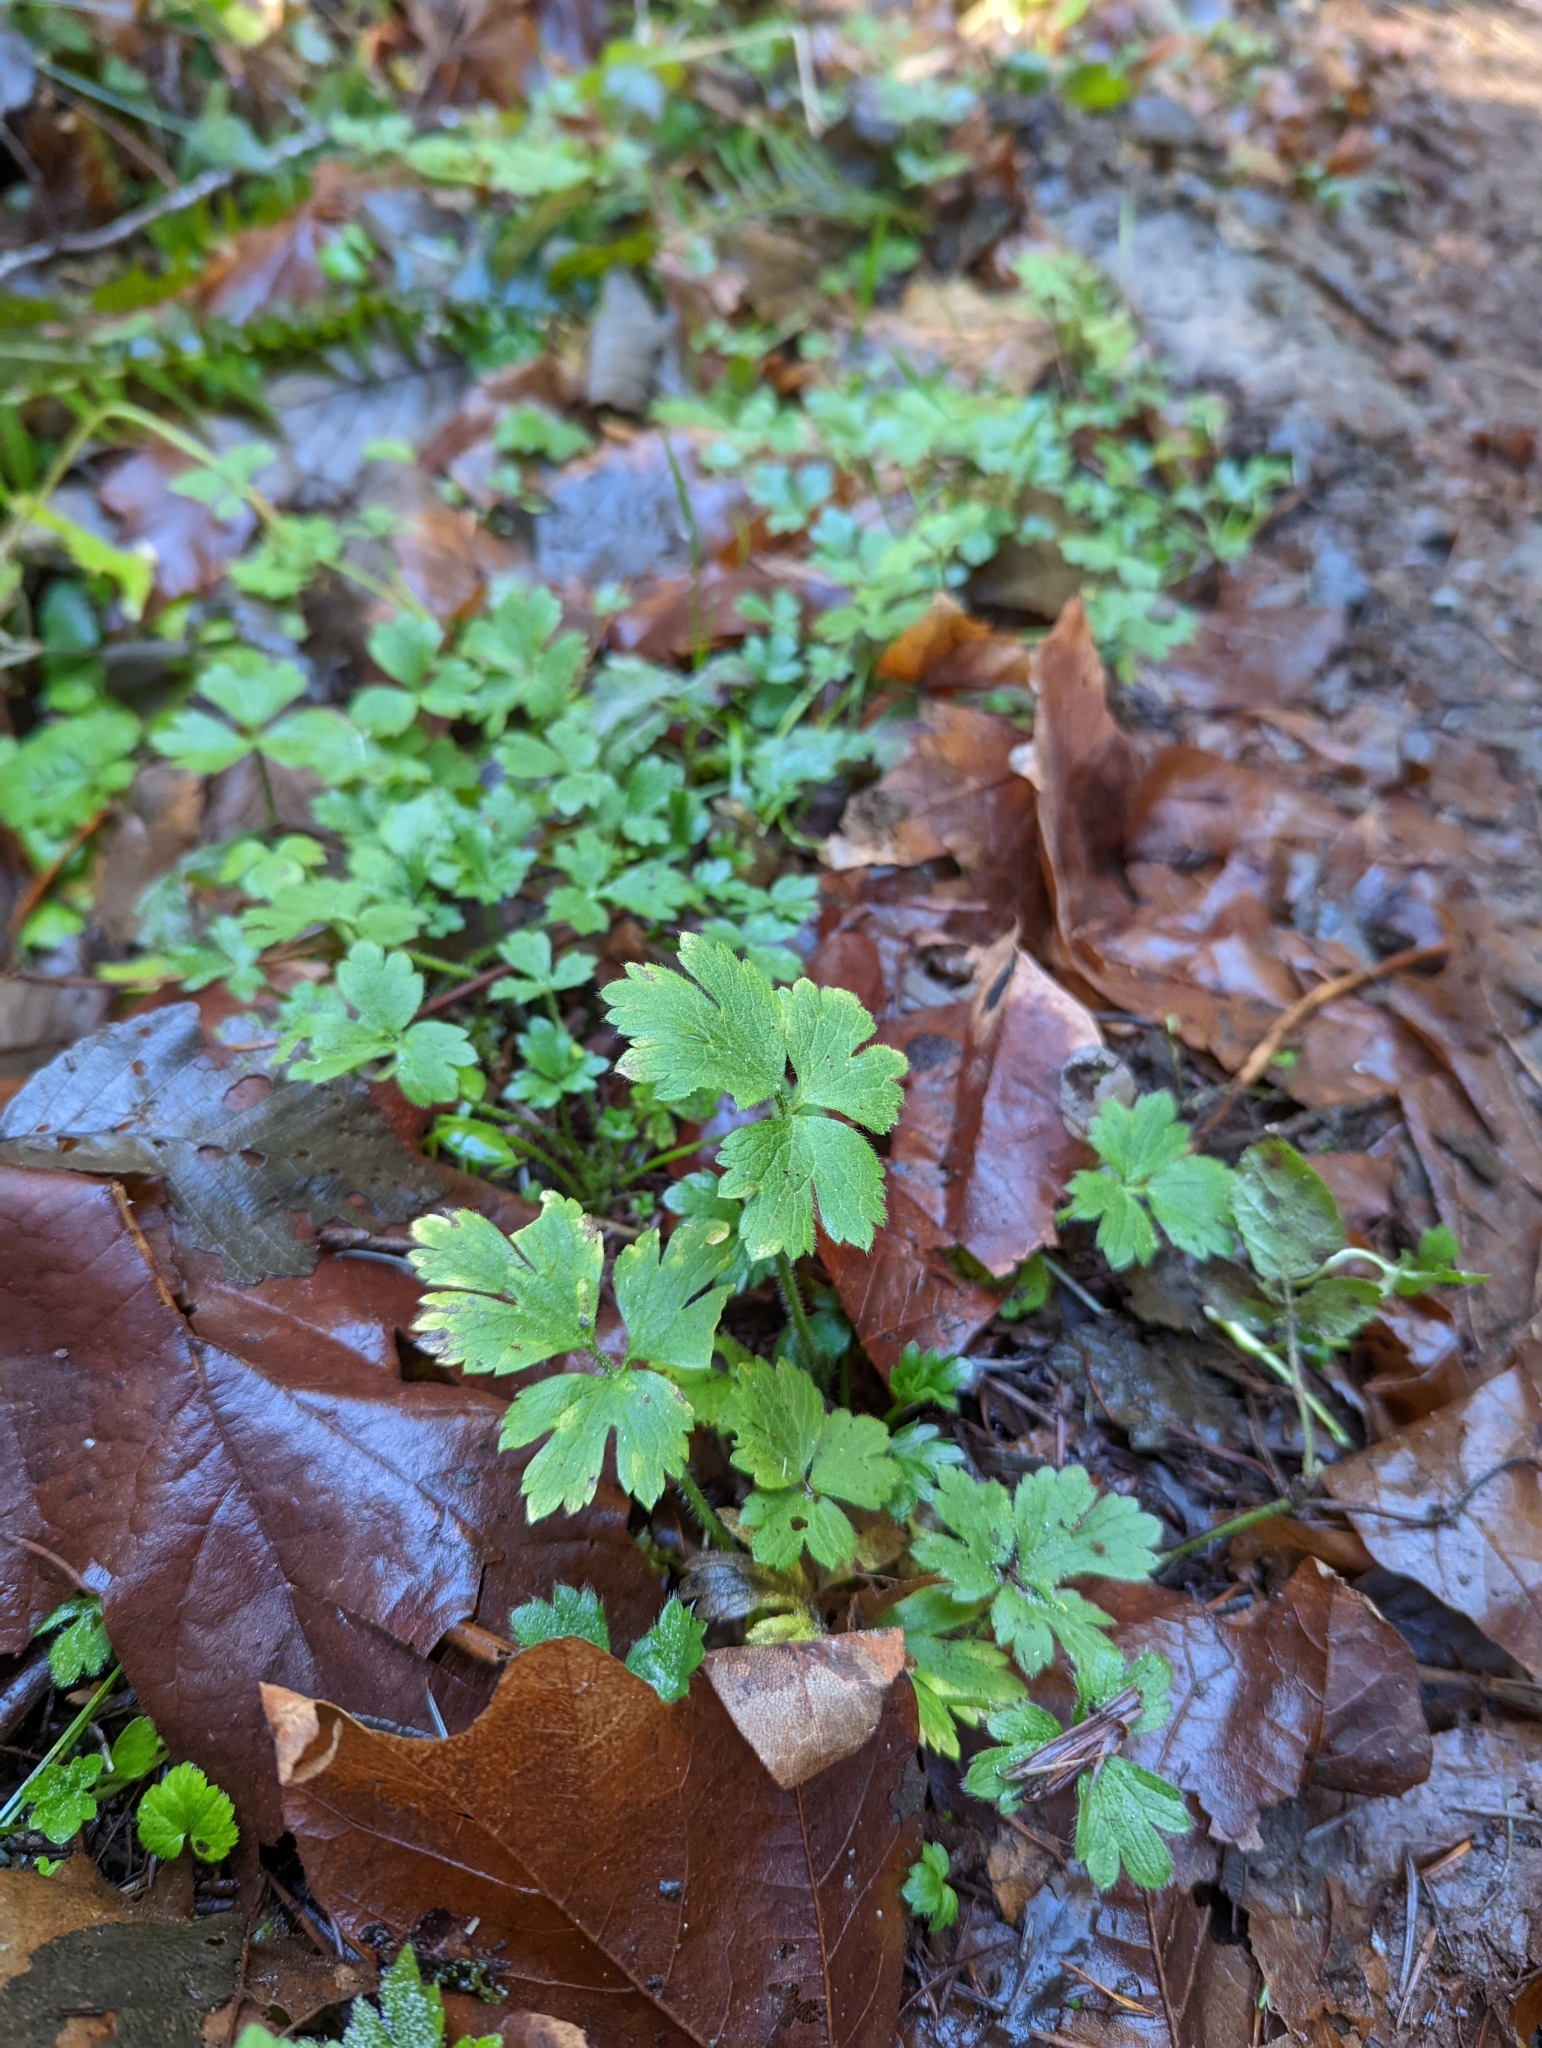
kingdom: Plantae
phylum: Tracheophyta
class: Magnoliopsida
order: Ranunculales
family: Ranunculaceae
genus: Ranunculus
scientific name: Ranunculus repens
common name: Creeping buttercup
